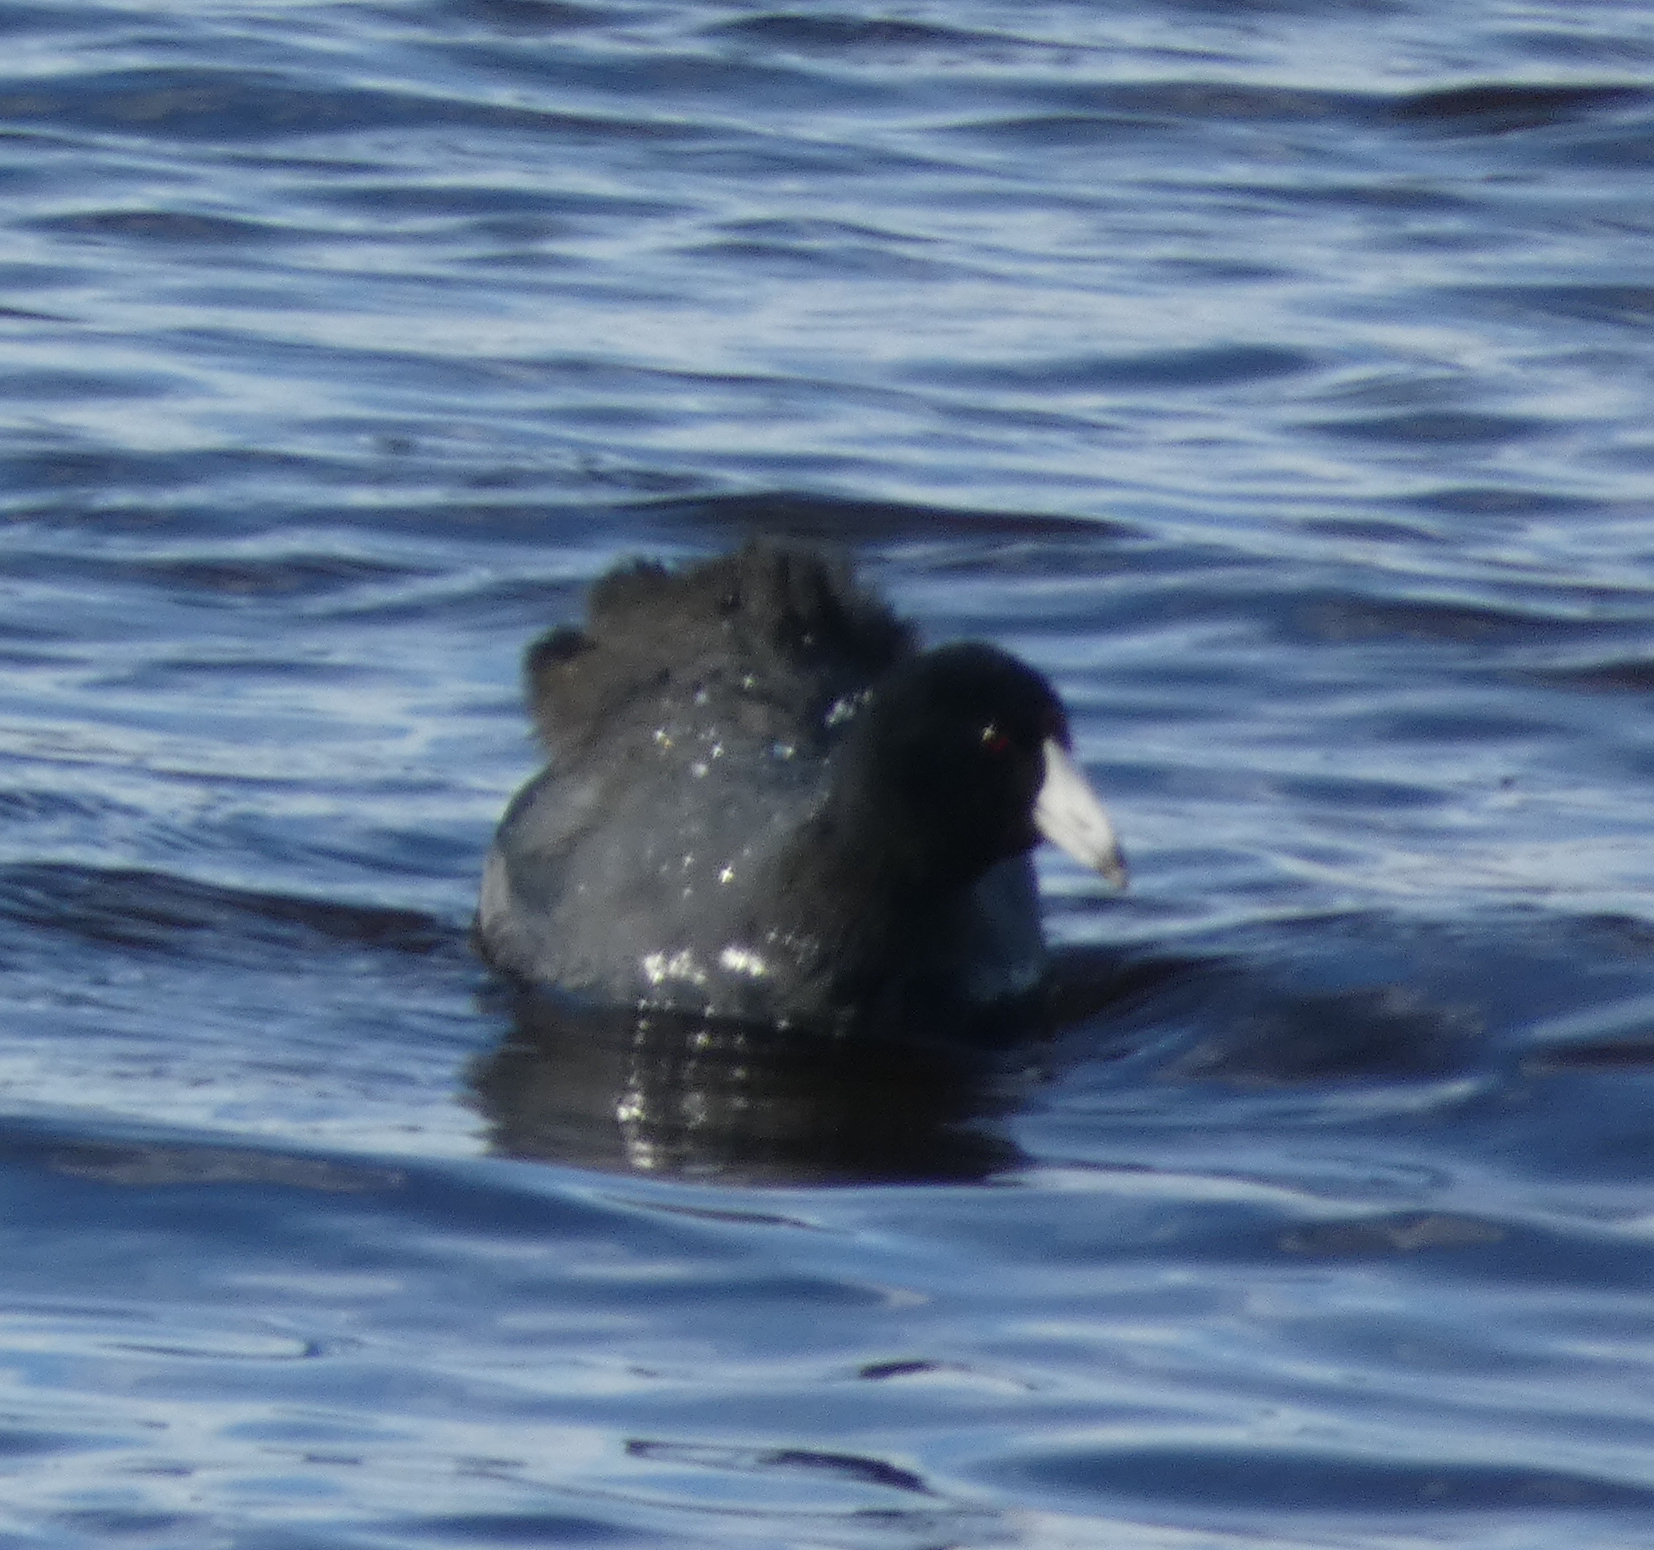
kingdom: Animalia
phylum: Chordata
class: Aves
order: Gruiformes
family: Rallidae
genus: Fulica
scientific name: Fulica americana
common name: American coot
